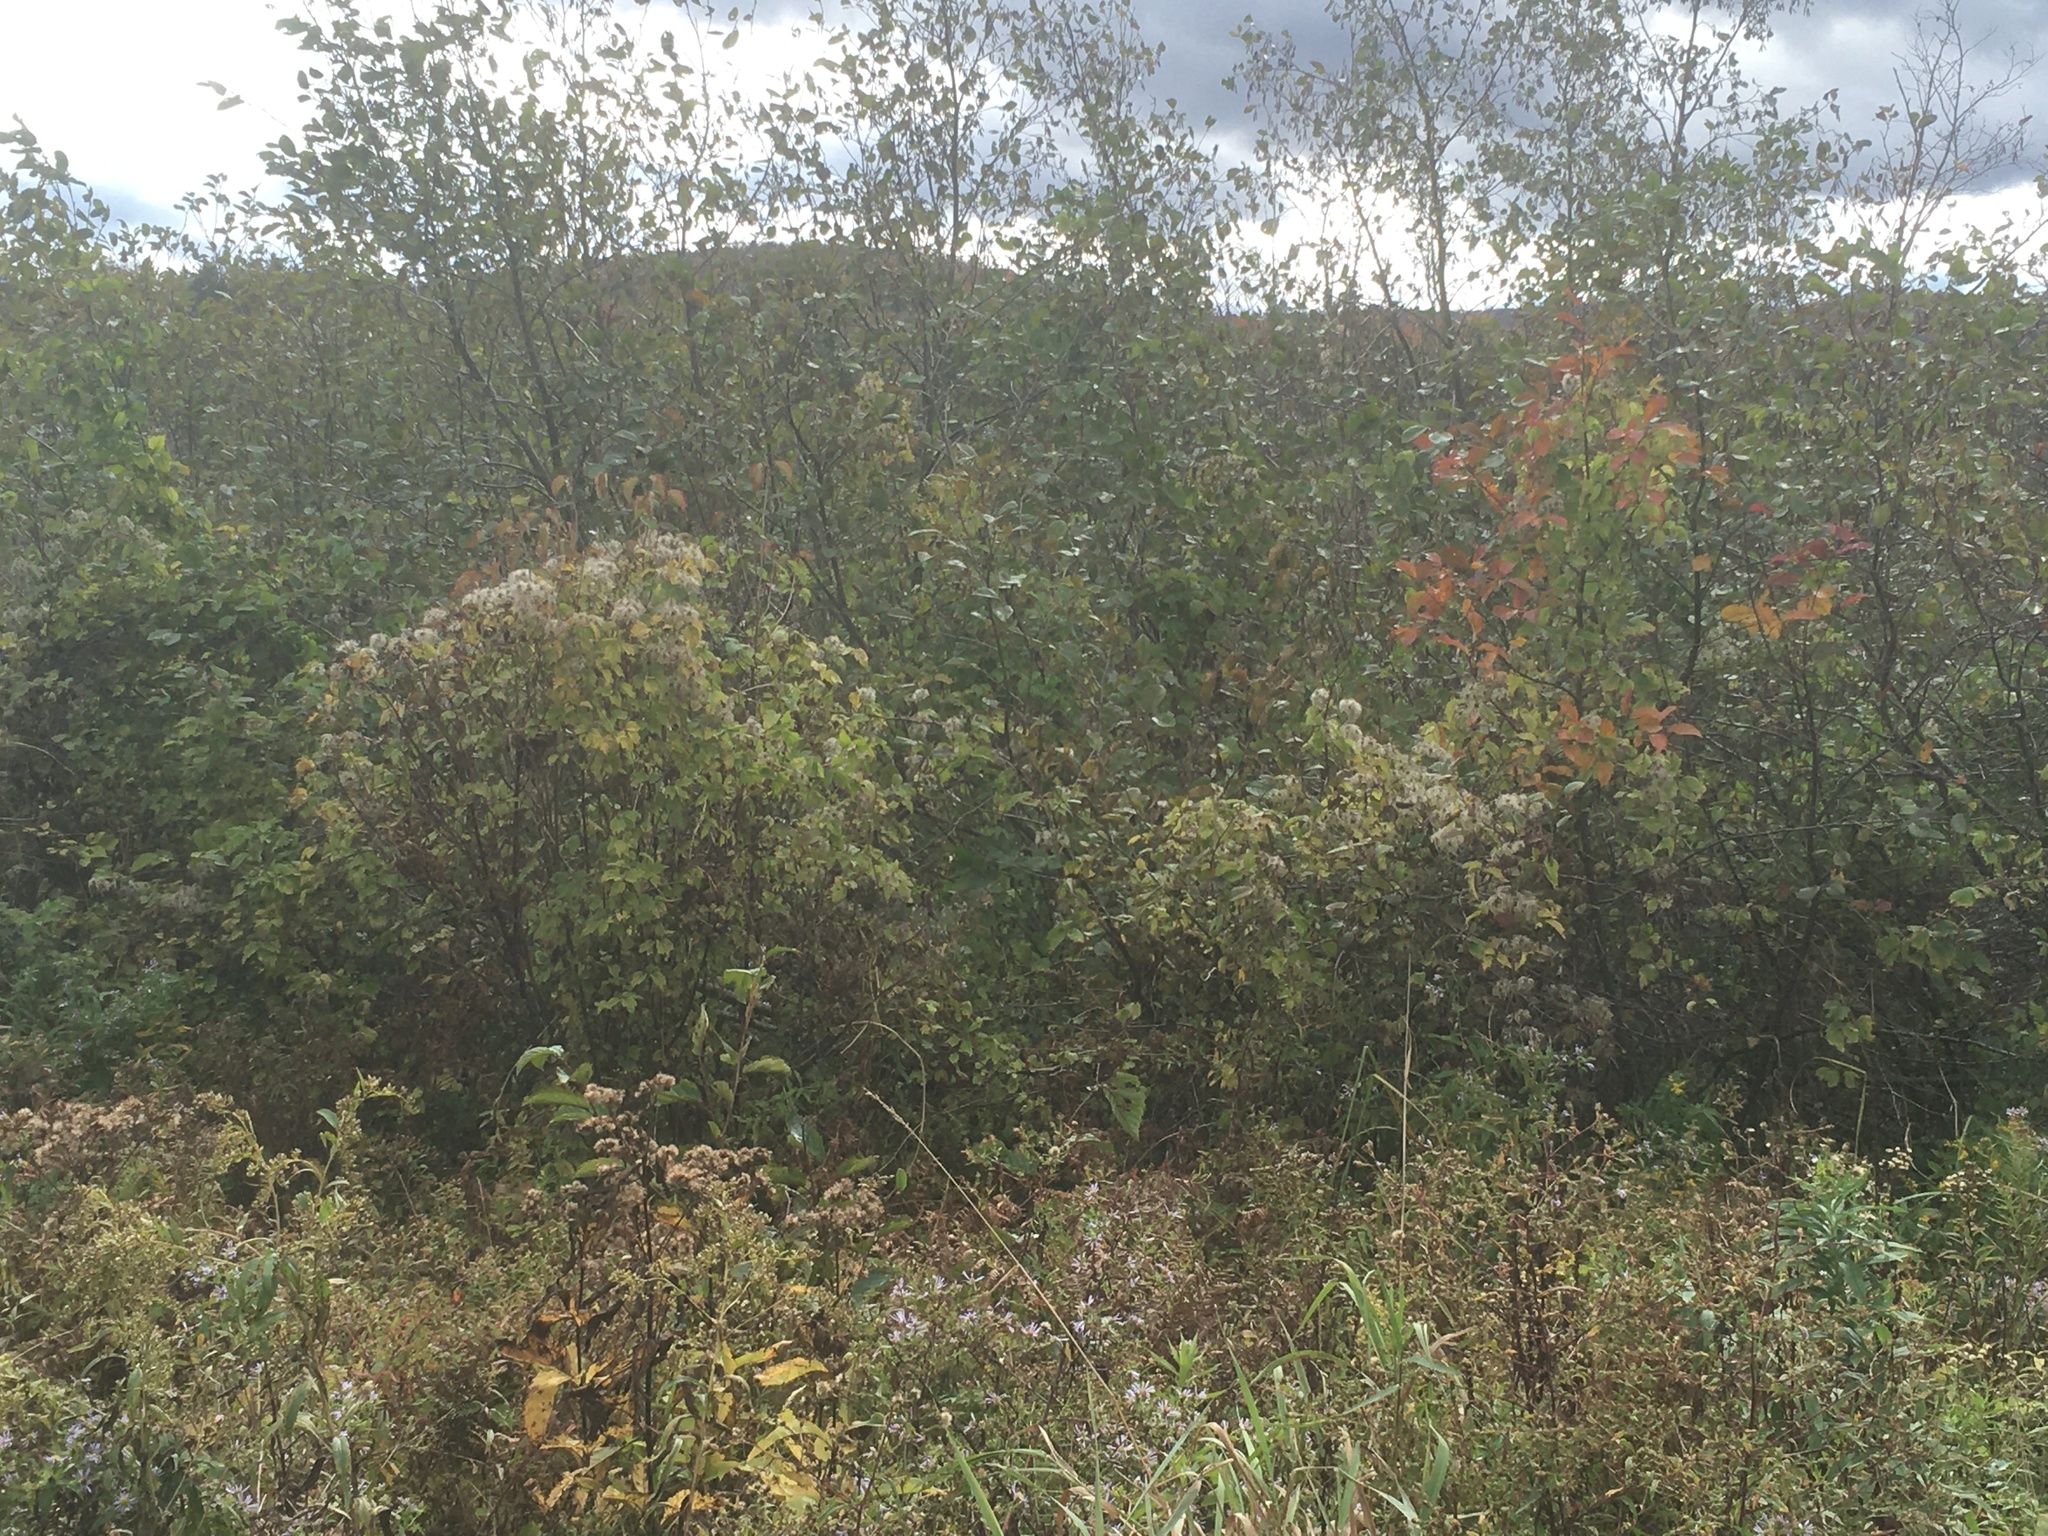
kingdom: Plantae
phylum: Tracheophyta
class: Magnoliopsida
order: Ranunculales
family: Ranunculaceae
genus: Clematis
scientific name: Clematis virginiana
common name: Virgin's-bower
